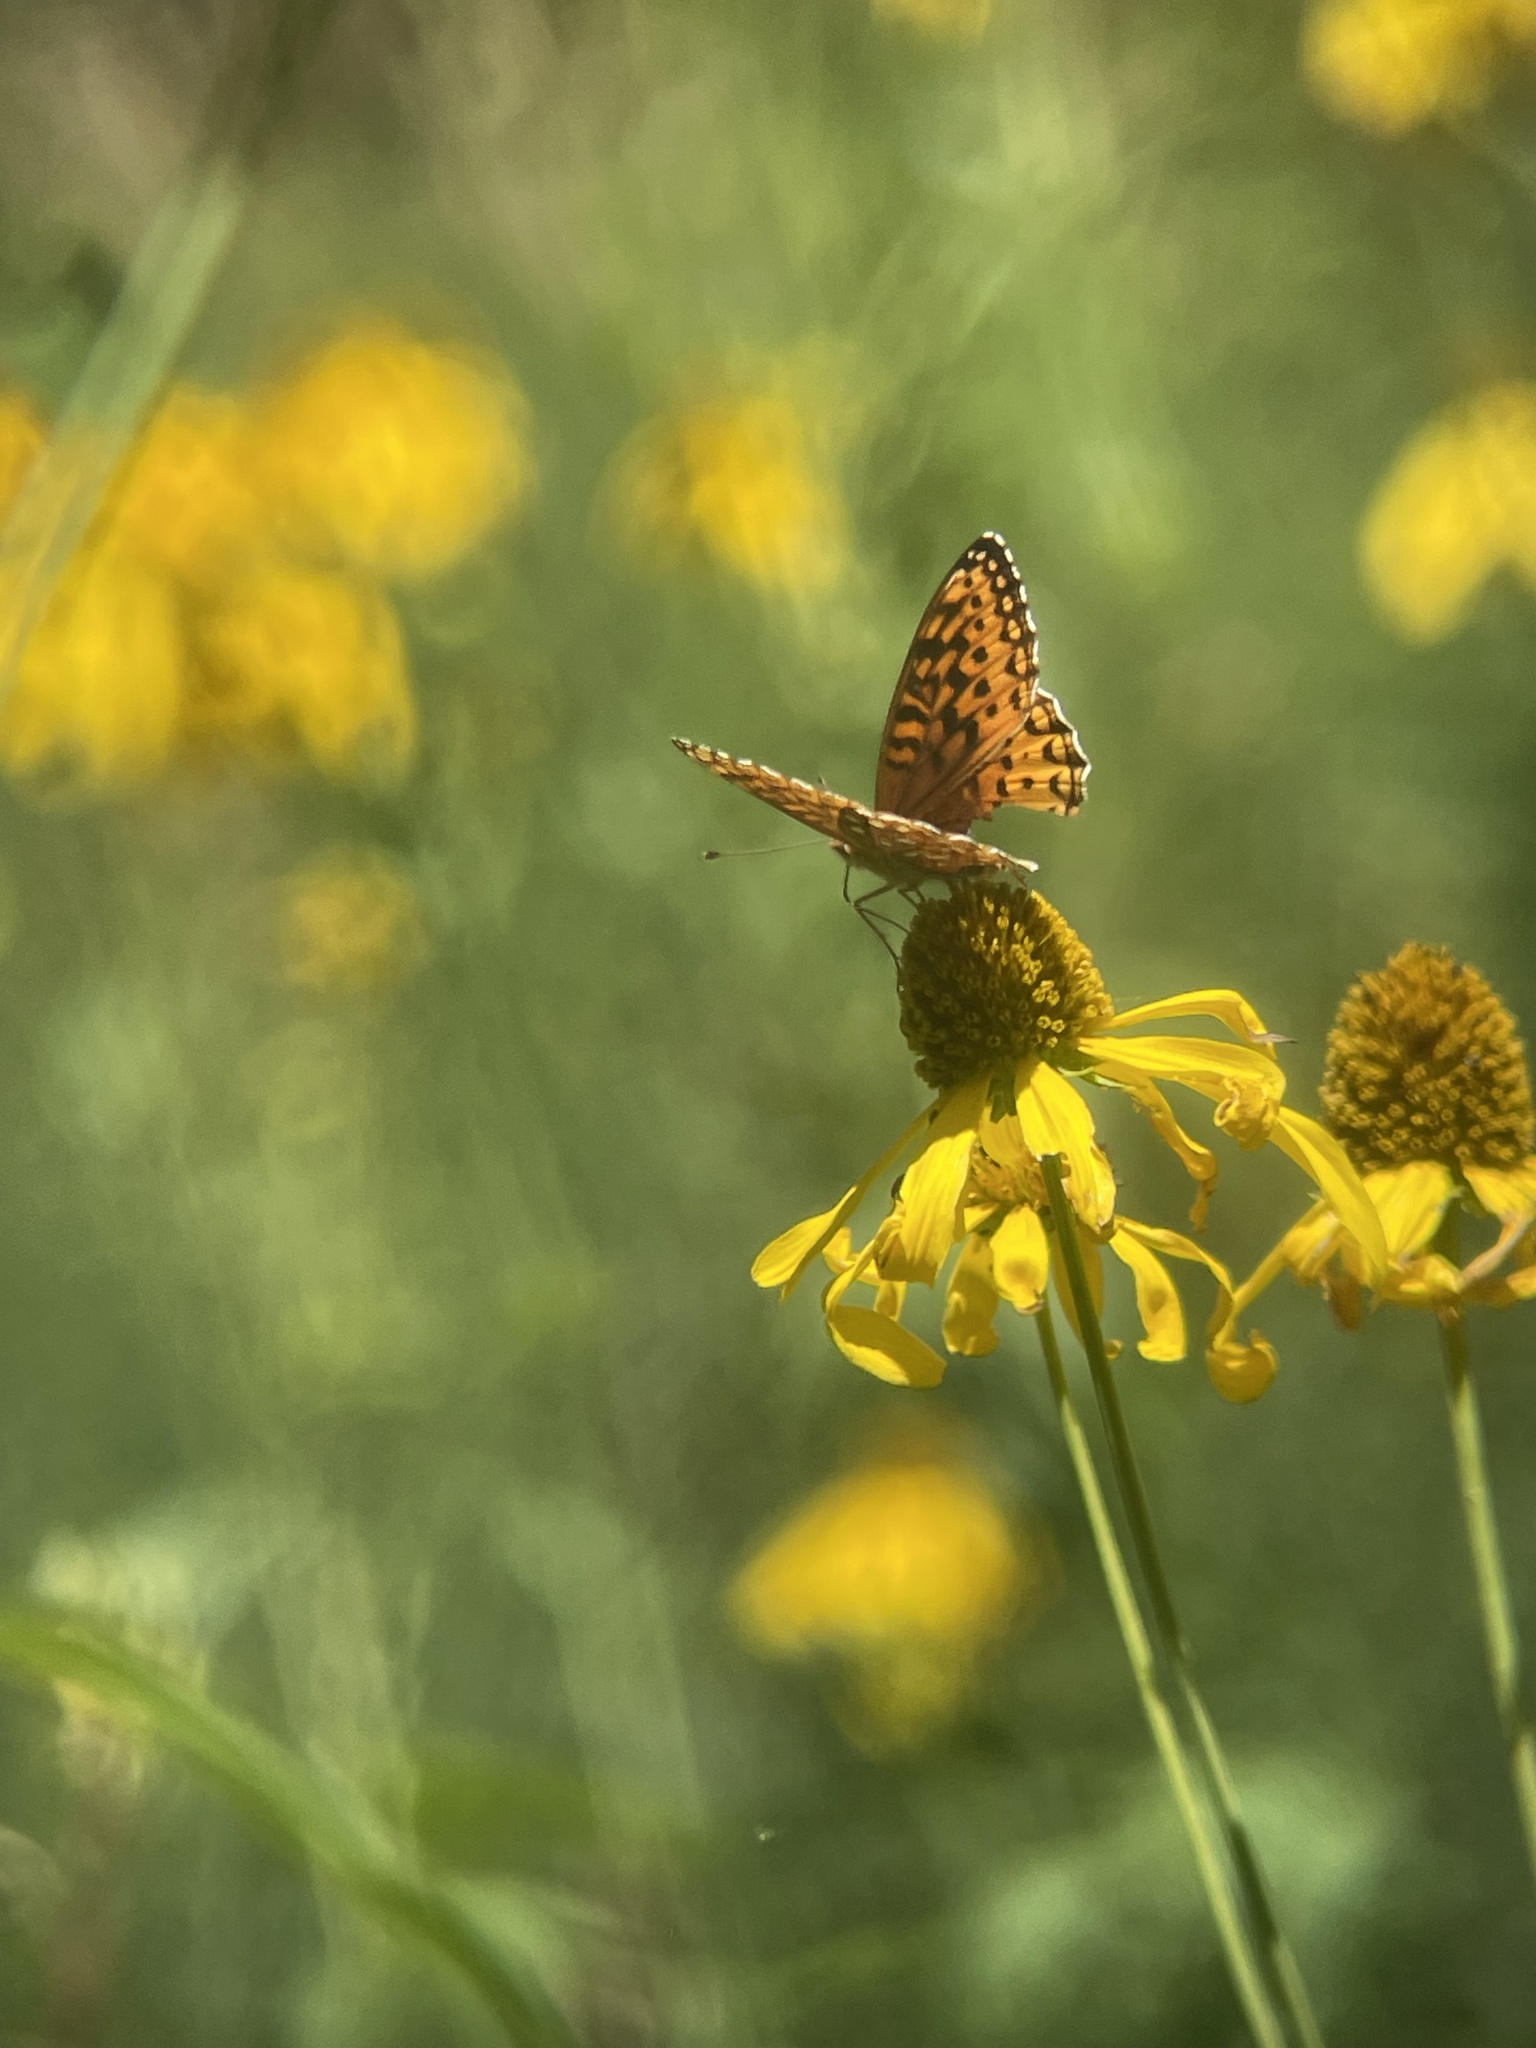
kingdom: Animalia
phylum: Arthropoda
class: Insecta
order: Lepidoptera
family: Nymphalidae
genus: Speyeria
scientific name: Speyeria atlantis
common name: Atlantis fritillary
